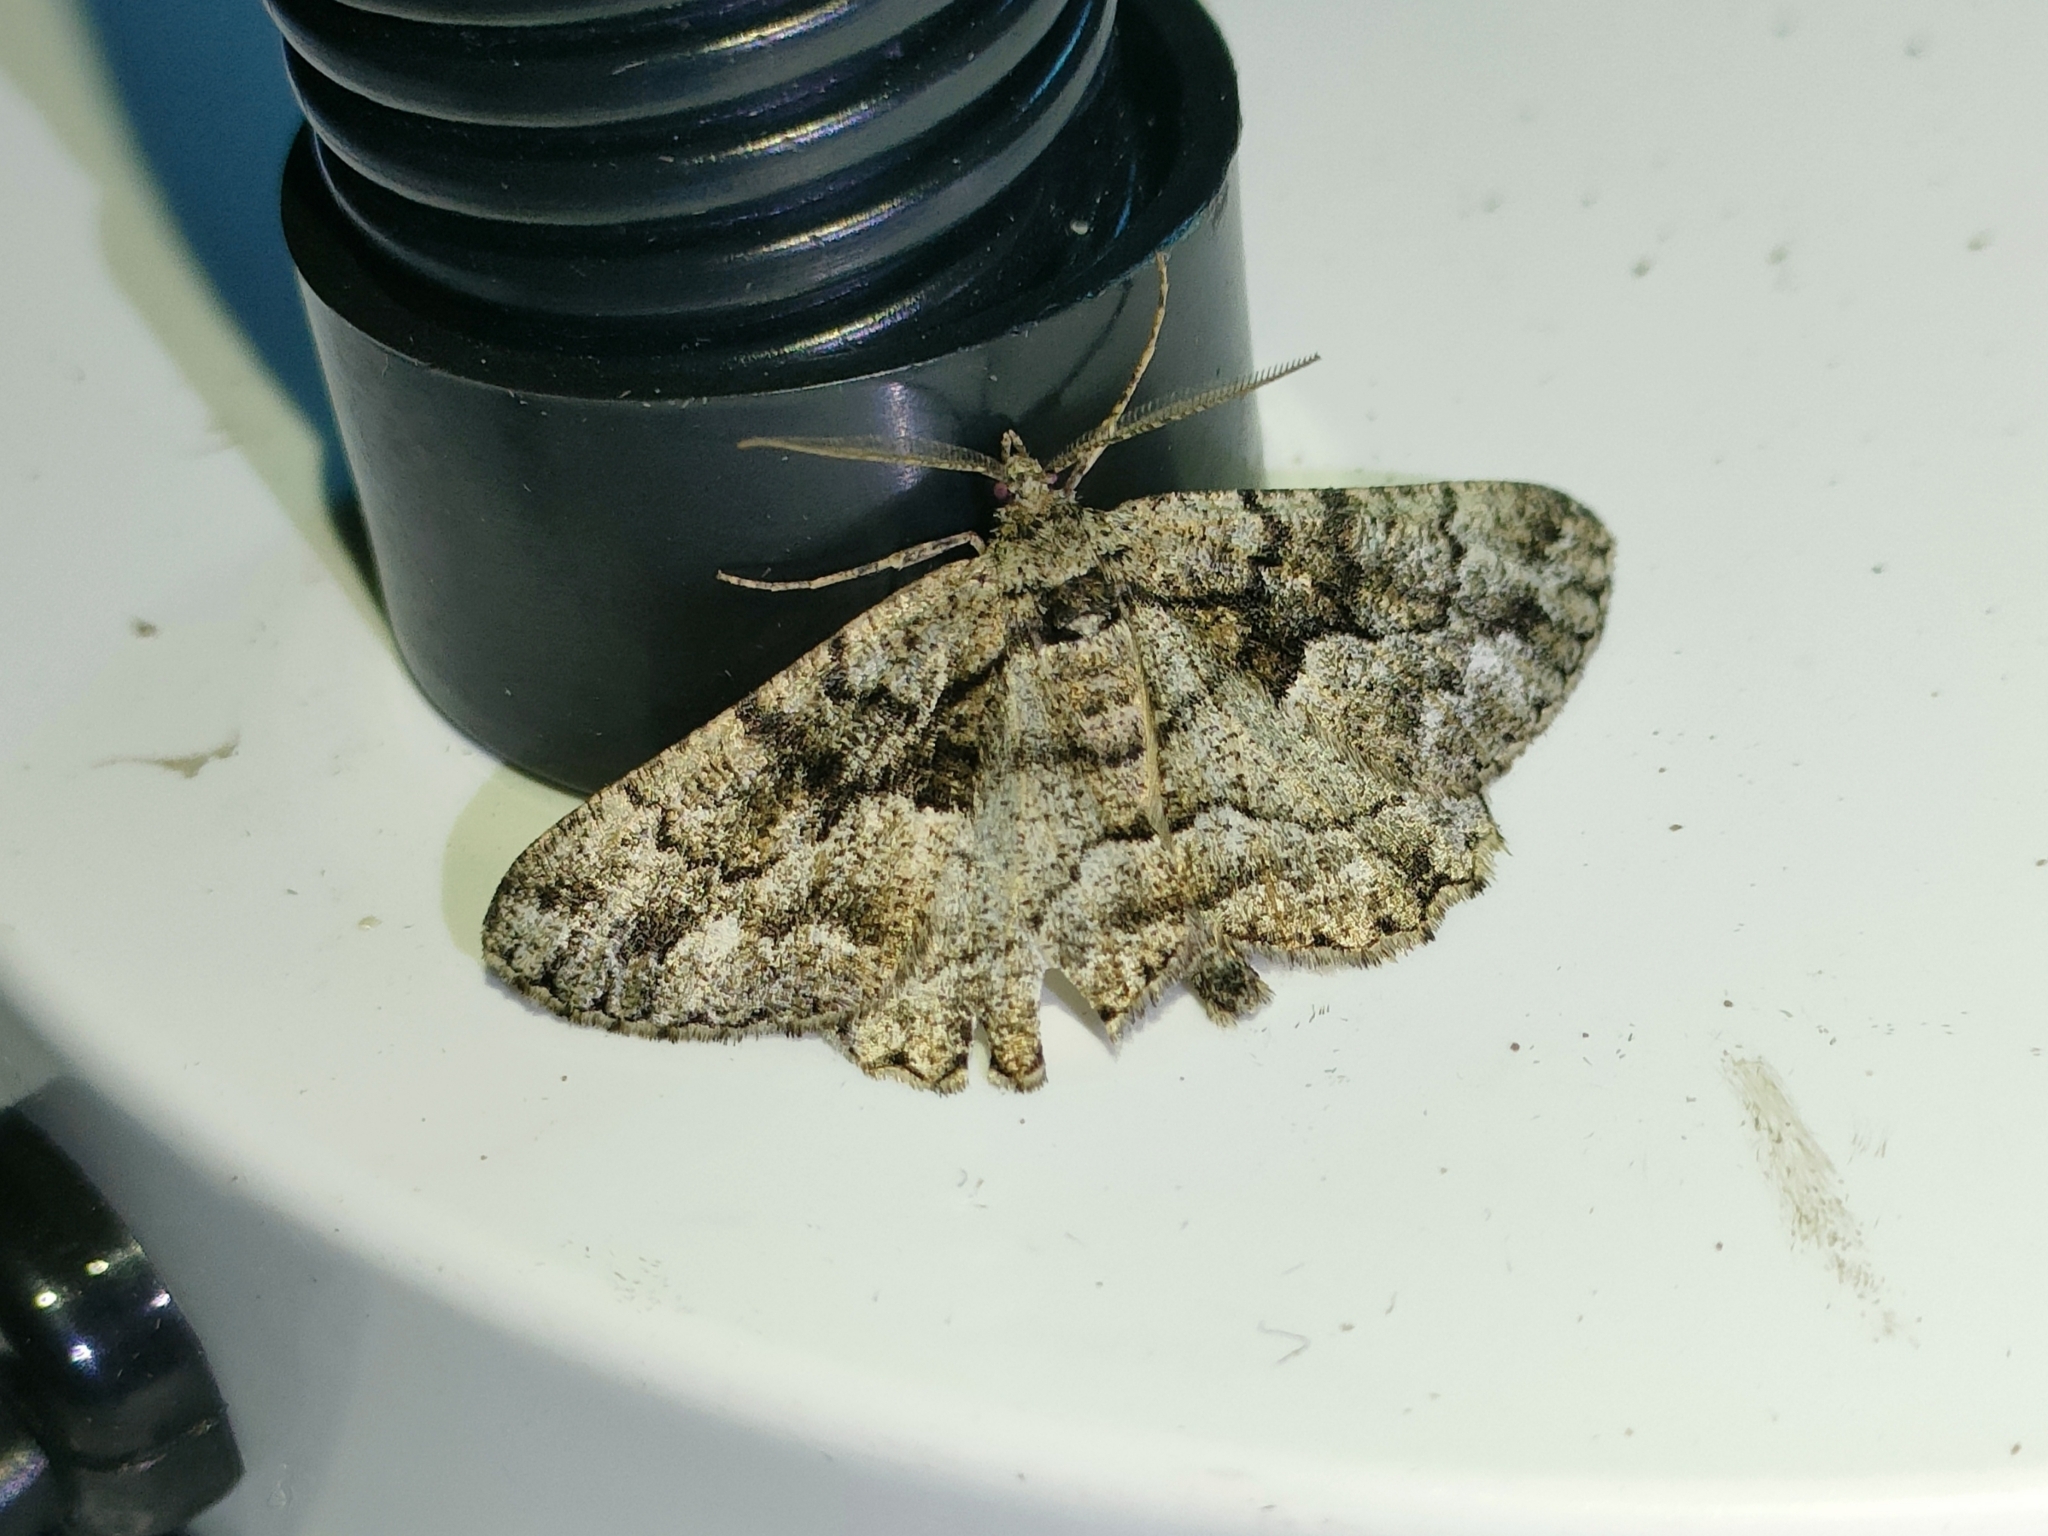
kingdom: Animalia
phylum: Arthropoda
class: Insecta
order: Lepidoptera
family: Geometridae
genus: Peribatodes
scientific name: Peribatodes ilicaria
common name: Lydd beauty
